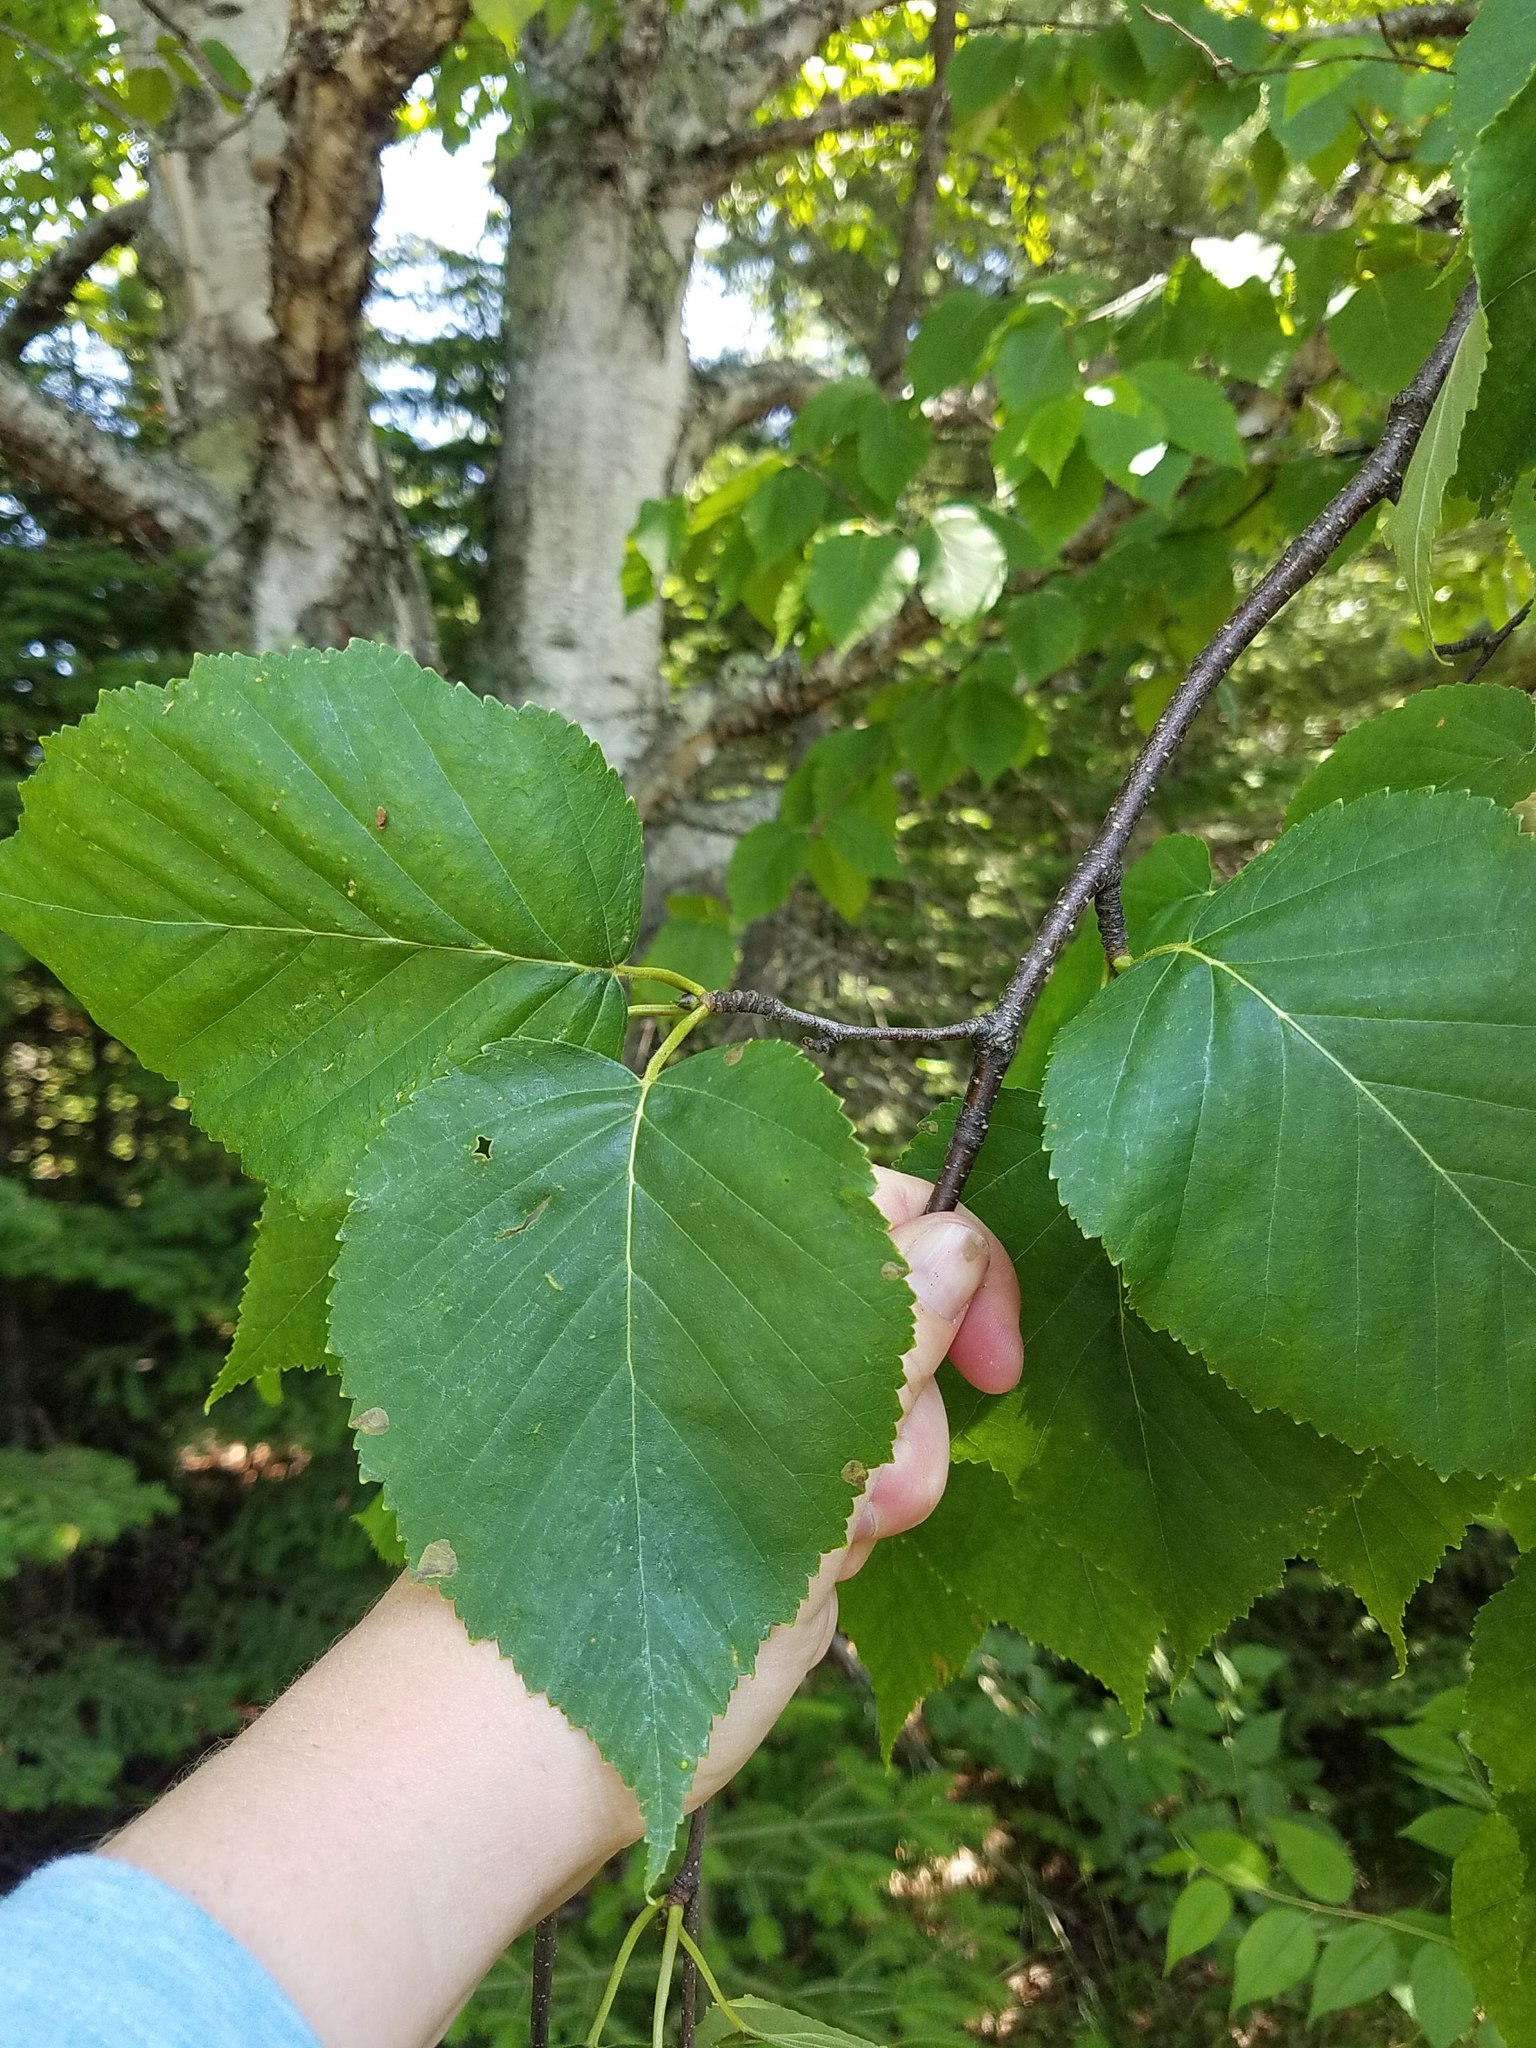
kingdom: Plantae
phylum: Tracheophyta
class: Magnoliopsida
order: Fagales
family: Betulaceae
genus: Betula
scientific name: Betula cordifolia
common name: Mountain white birch
